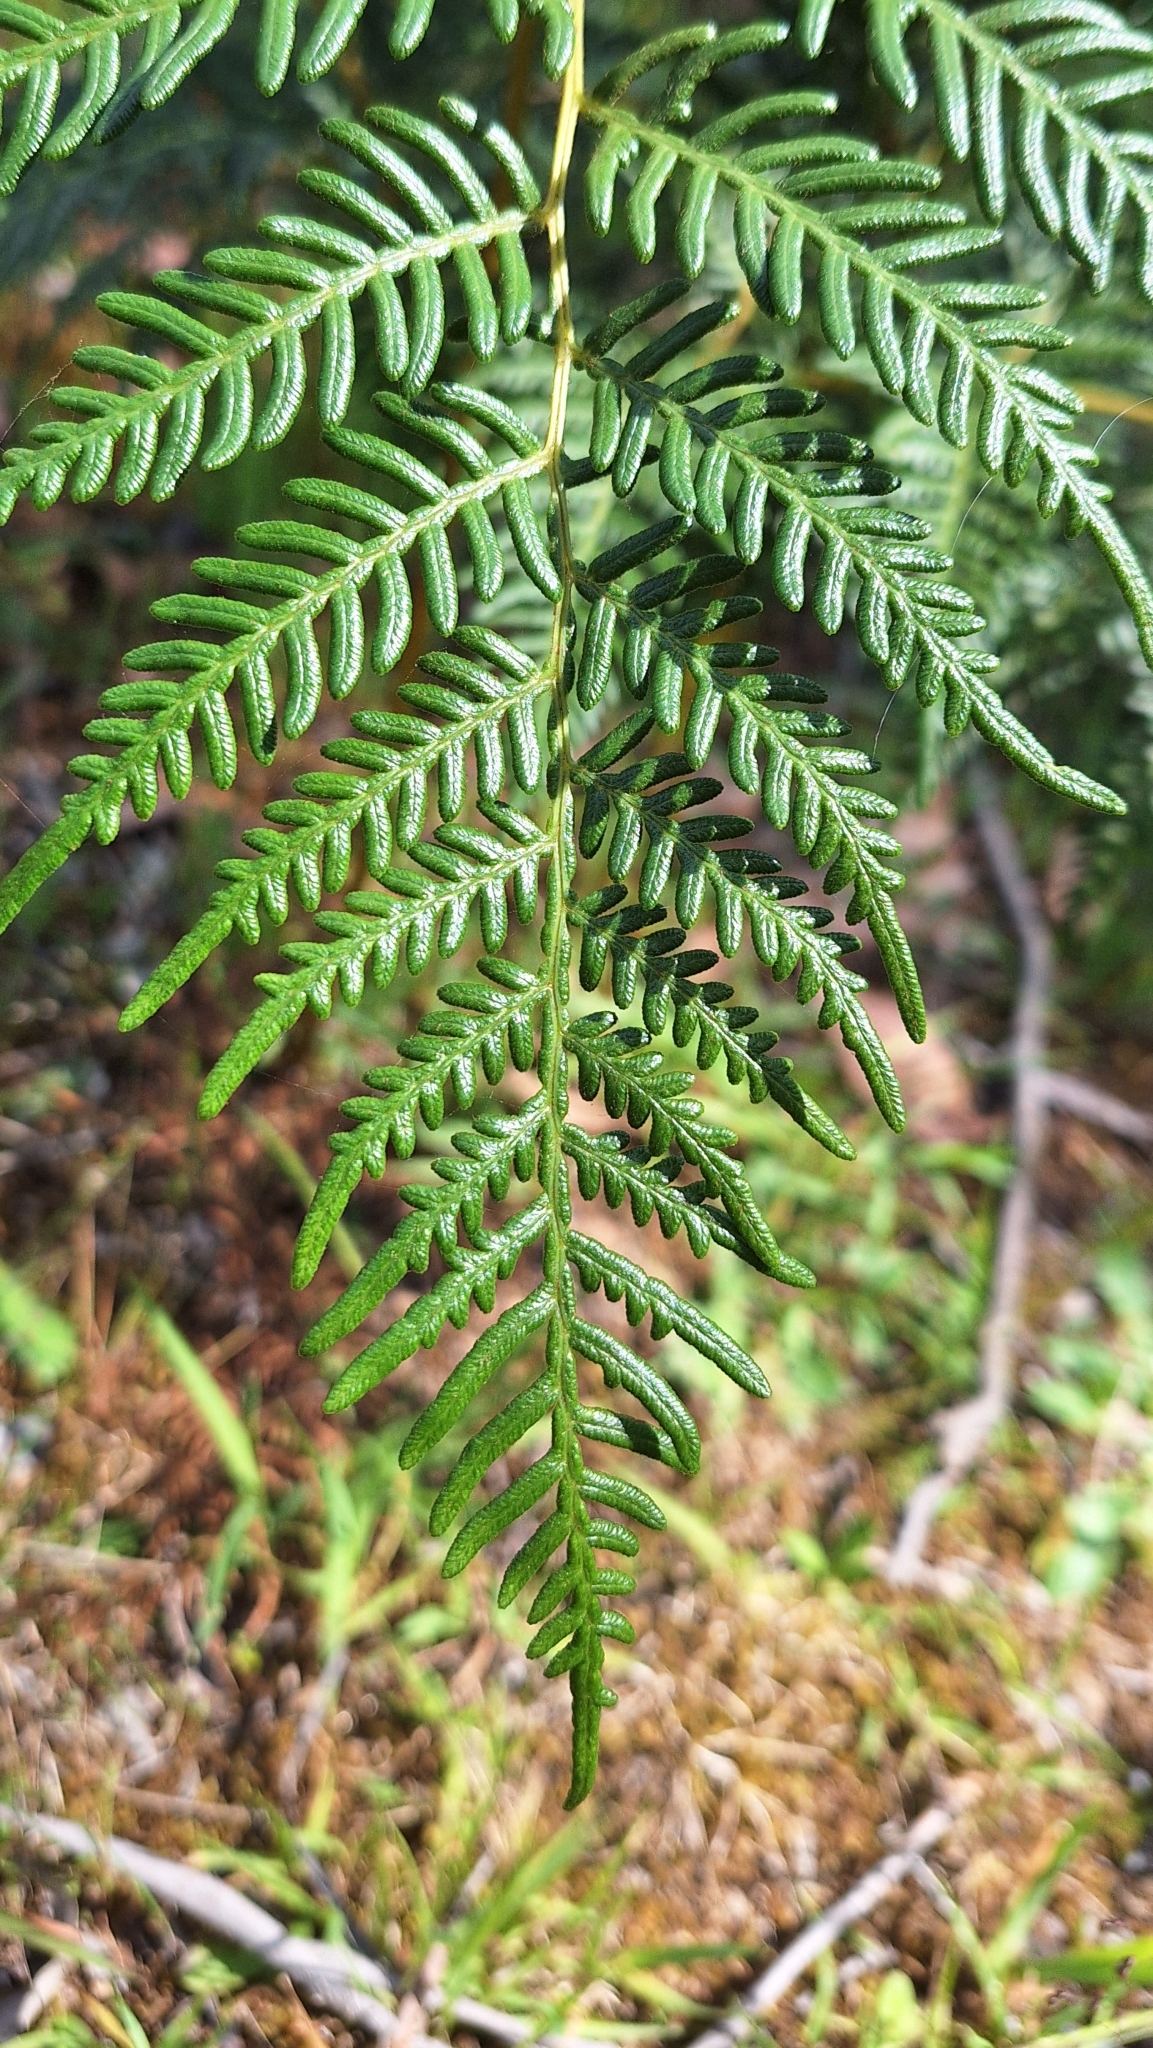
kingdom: Plantae
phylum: Tracheophyta
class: Polypodiopsida
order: Polypodiales
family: Dennstaedtiaceae
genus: Pteridium
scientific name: Pteridium esculentum
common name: Bracken fern
